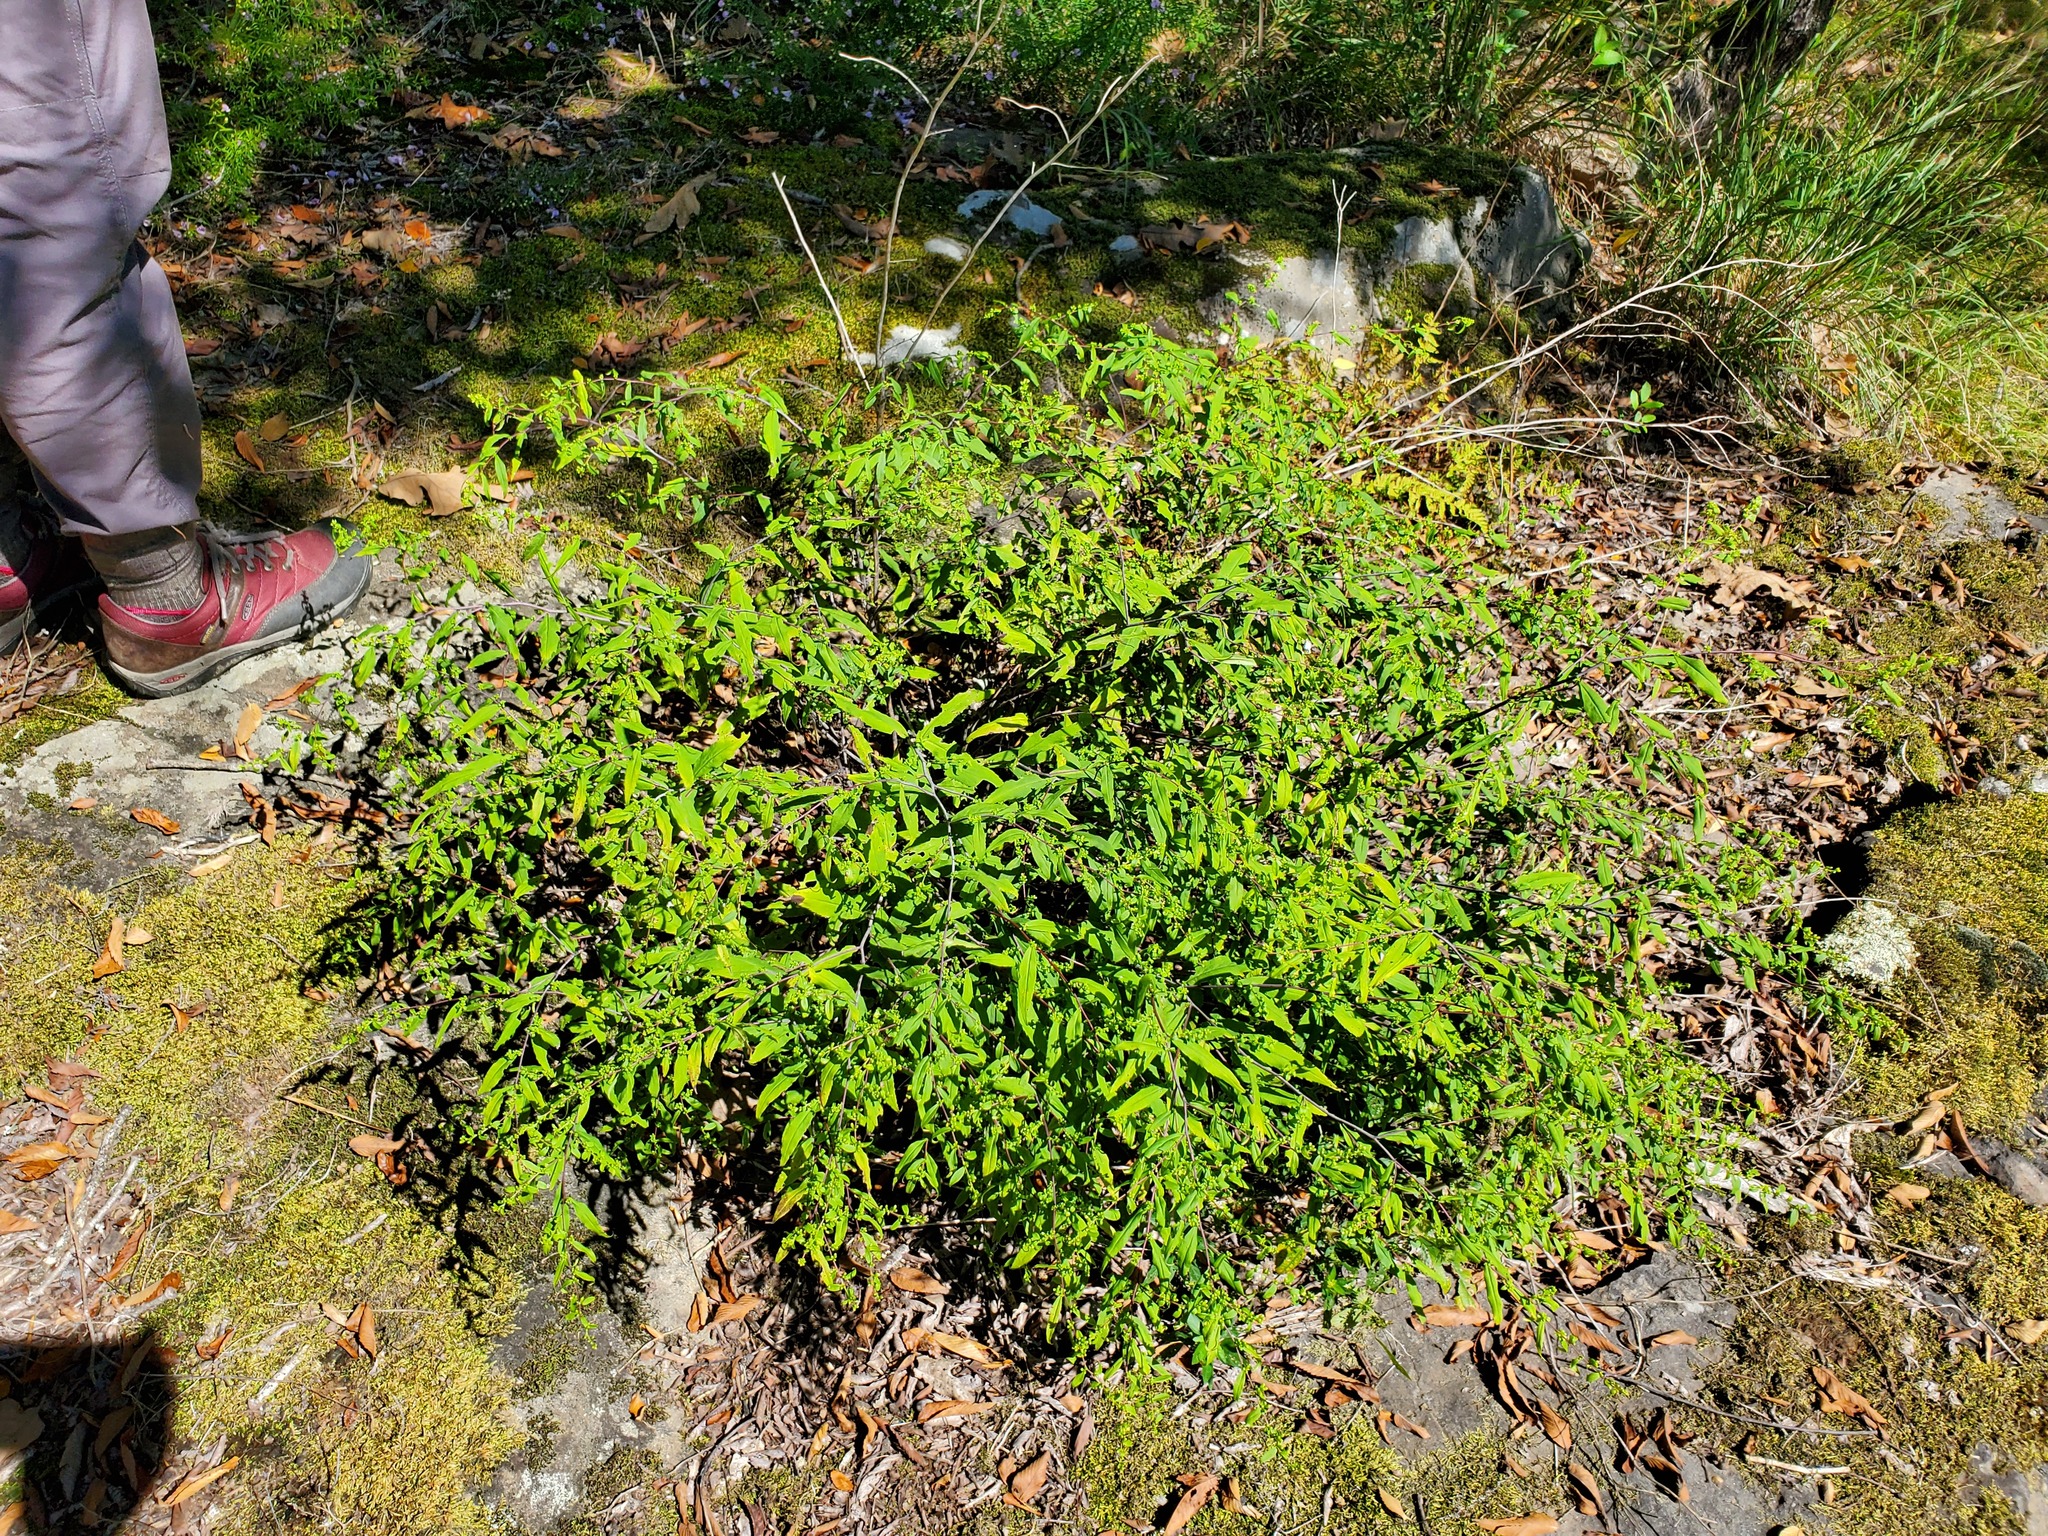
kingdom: Plantae
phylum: Tracheophyta
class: Magnoliopsida
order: Asterales
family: Asteraceae
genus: Solidago
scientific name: Solidago caesia
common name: Woodland goldenrod
